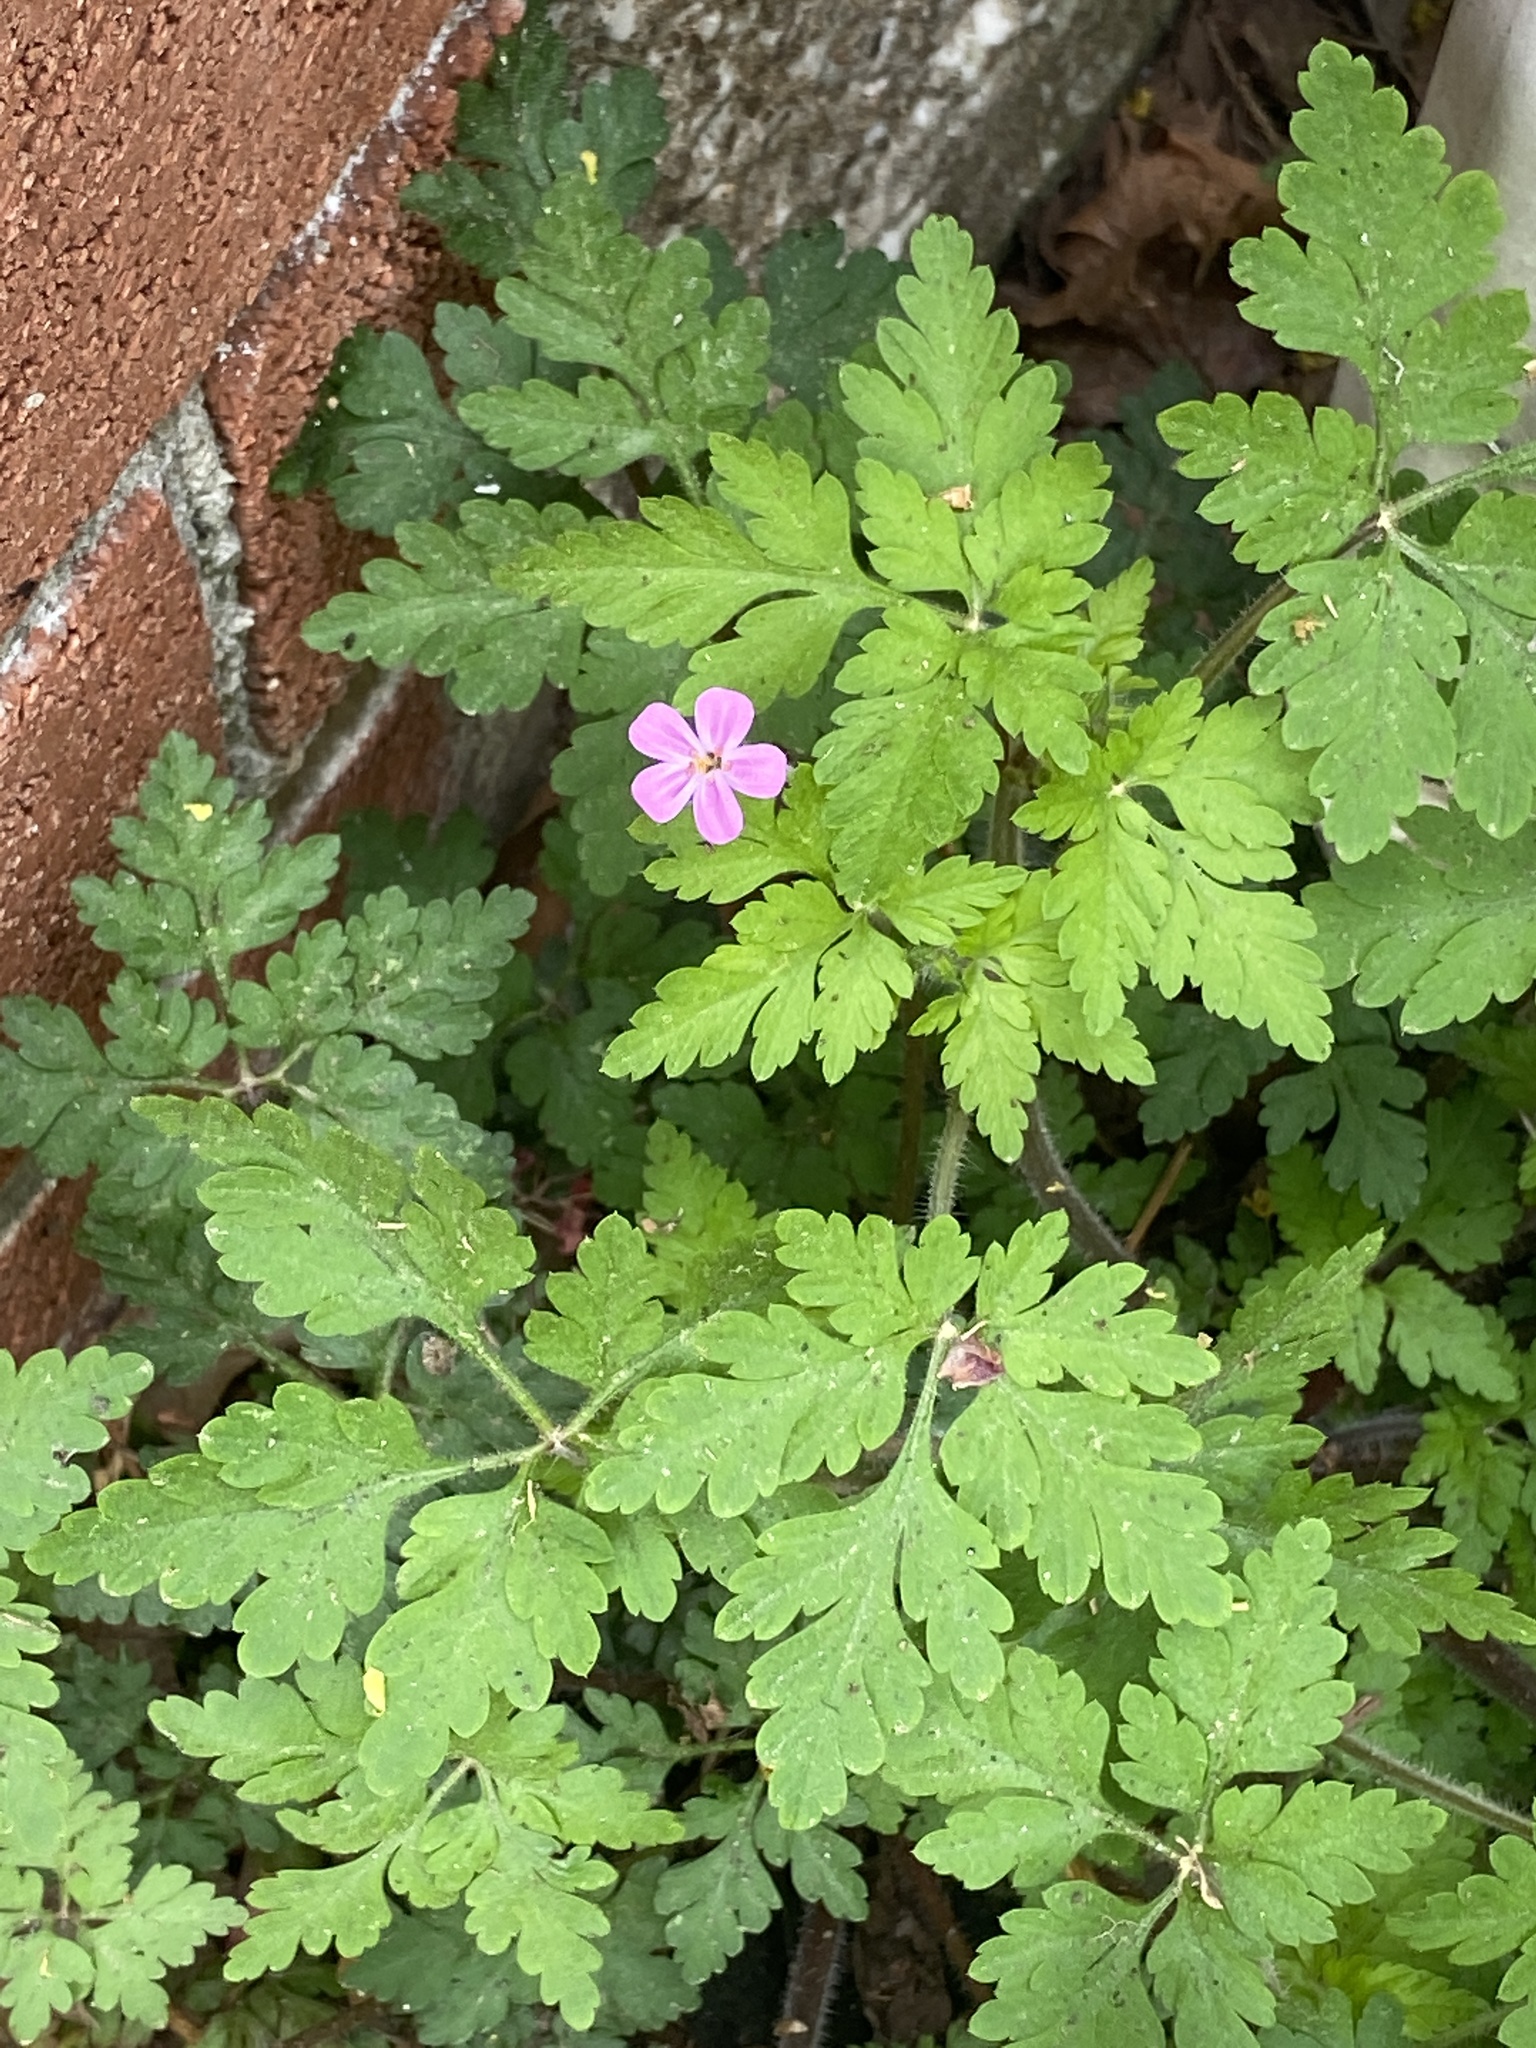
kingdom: Plantae
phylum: Tracheophyta
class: Magnoliopsida
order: Geraniales
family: Geraniaceae
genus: Geranium
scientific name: Geranium robertianum
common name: Herb-robert
